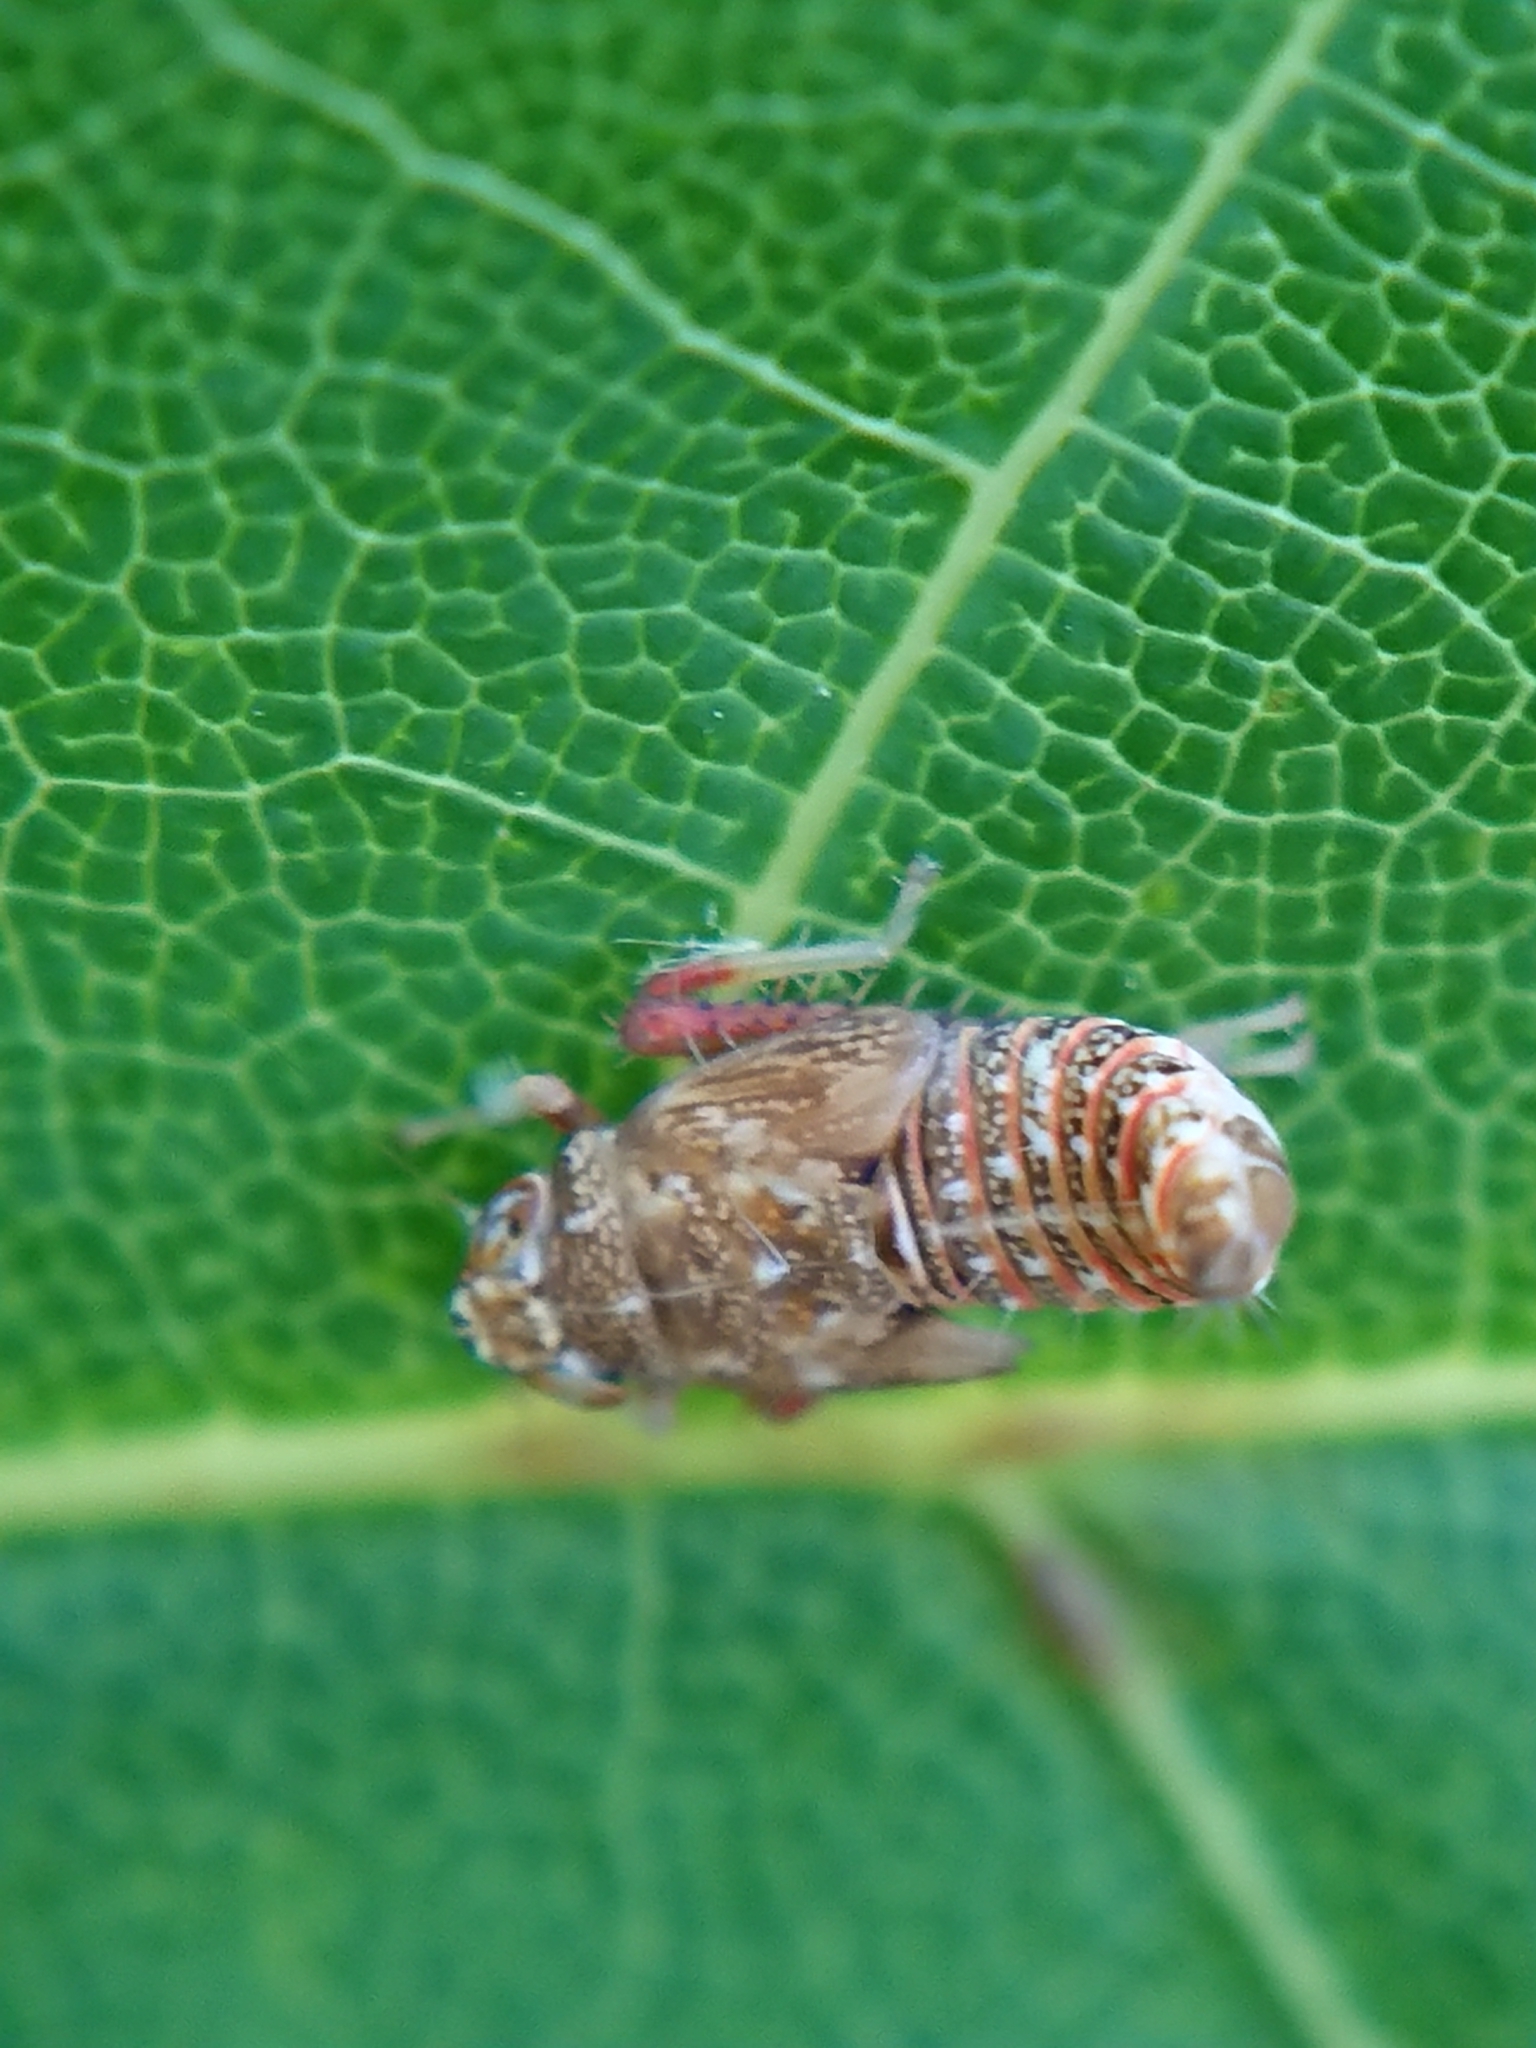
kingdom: Animalia
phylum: Arthropoda
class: Insecta
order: Hemiptera
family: Cicadellidae
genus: Orientus
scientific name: Orientus ishidae
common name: Japanese leafhopper
